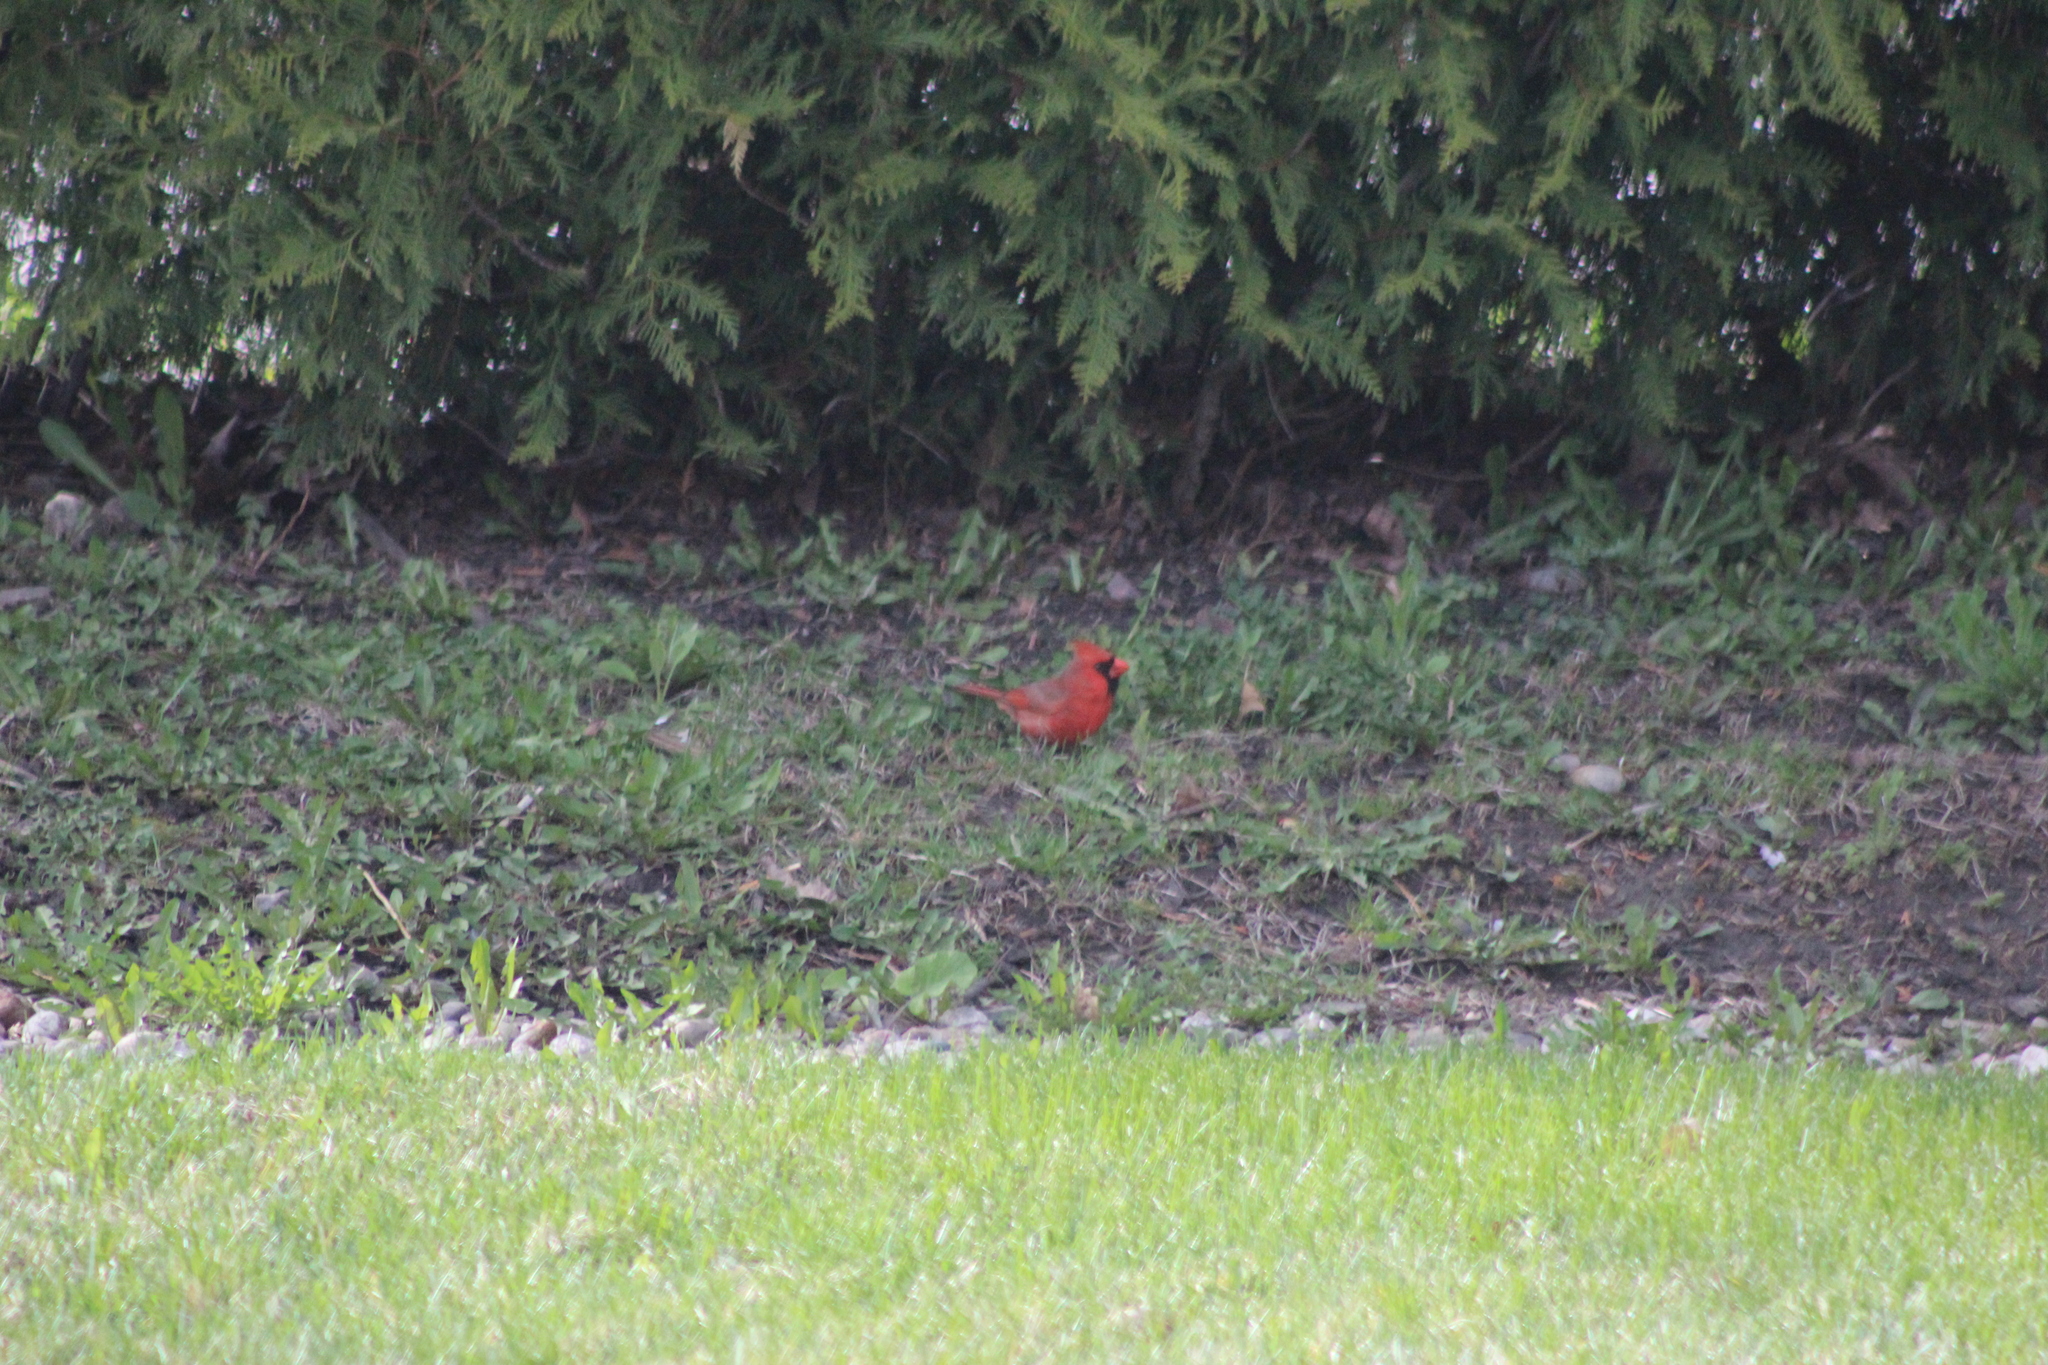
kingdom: Animalia
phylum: Chordata
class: Aves
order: Passeriformes
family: Cardinalidae
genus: Cardinalis
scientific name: Cardinalis cardinalis
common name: Northern cardinal
